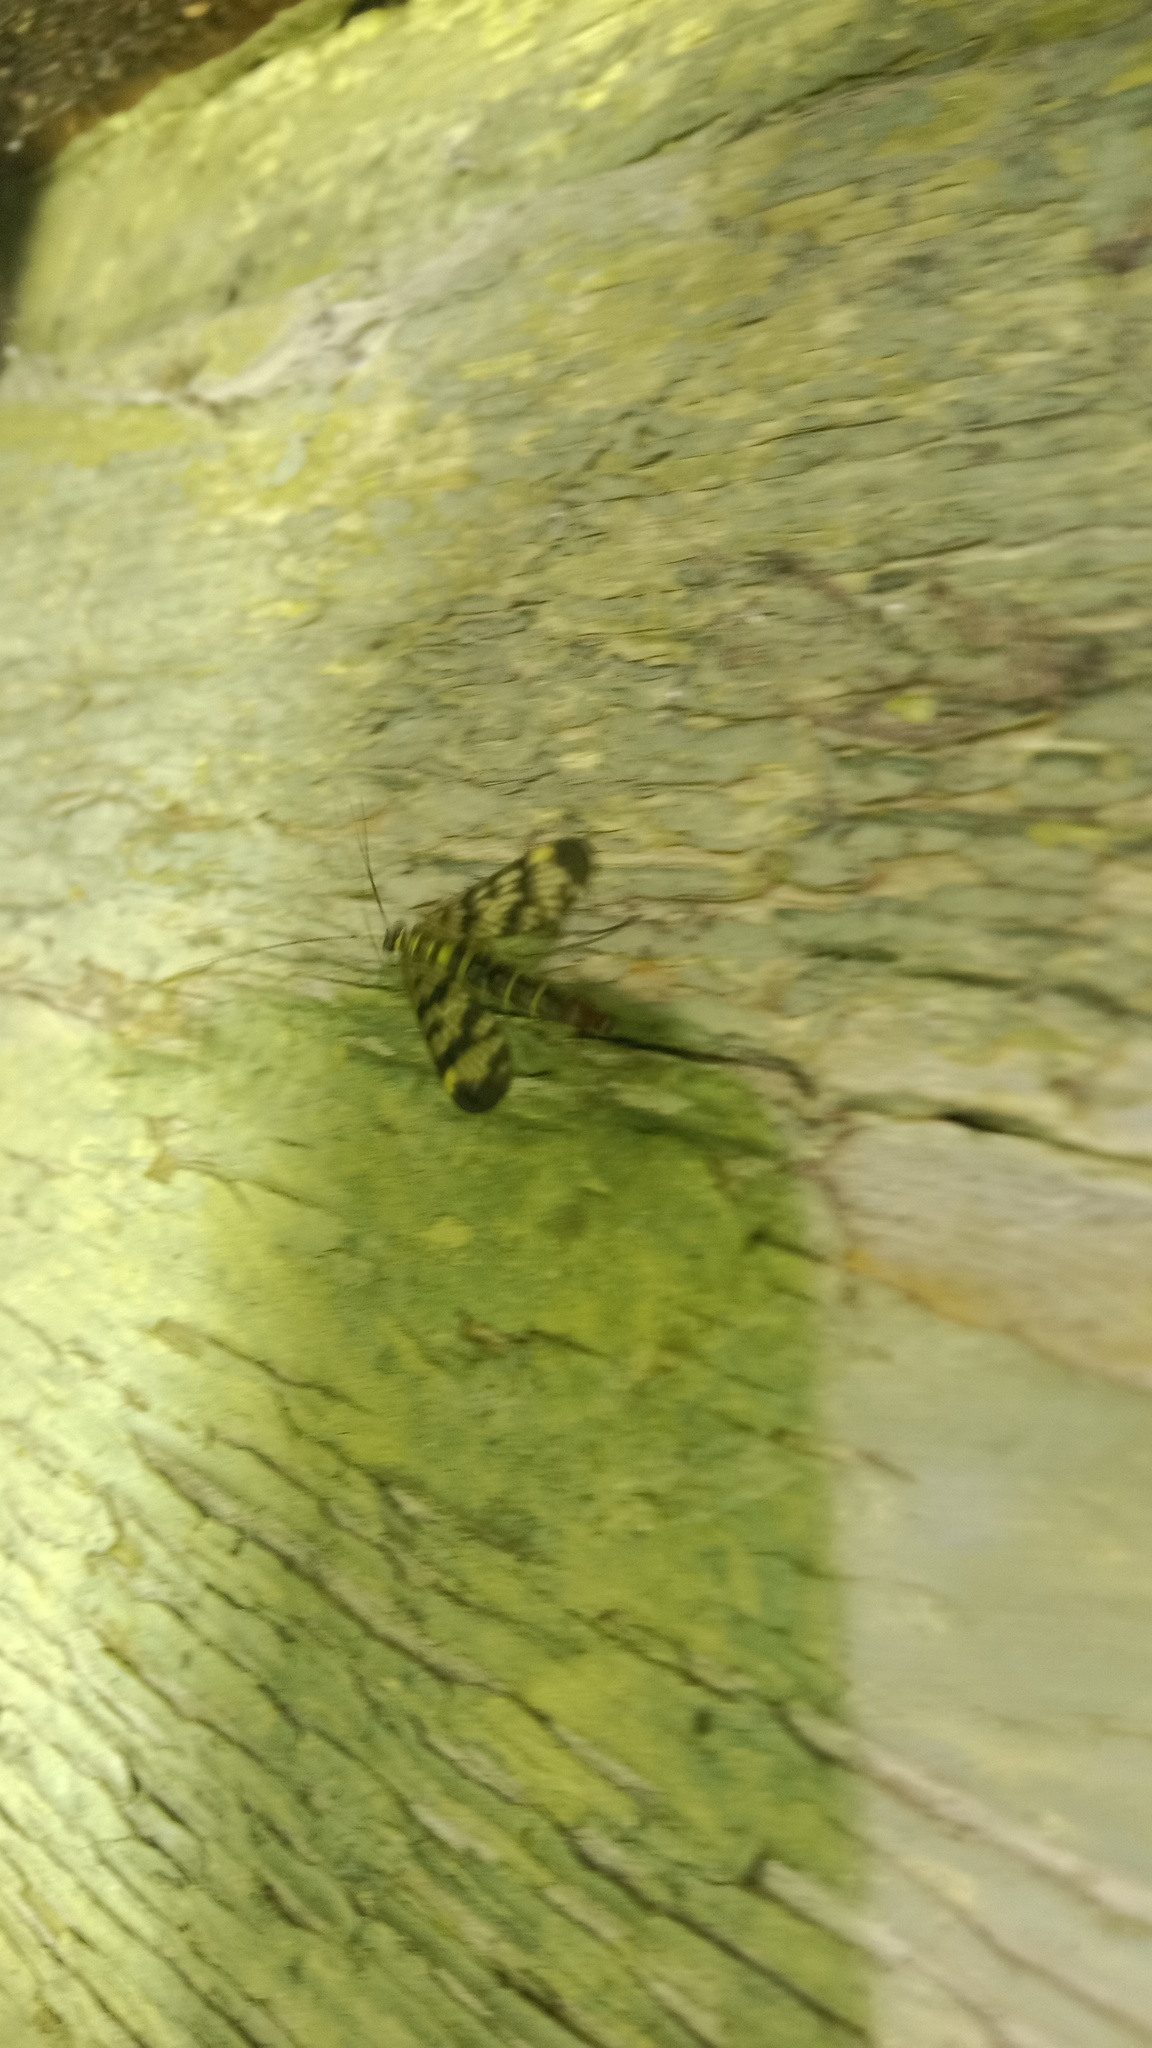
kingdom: Animalia
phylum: Arthropoda
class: Insecta
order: Mecoptera
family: Panorpidae
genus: Panorpa
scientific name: Panorpa communis
